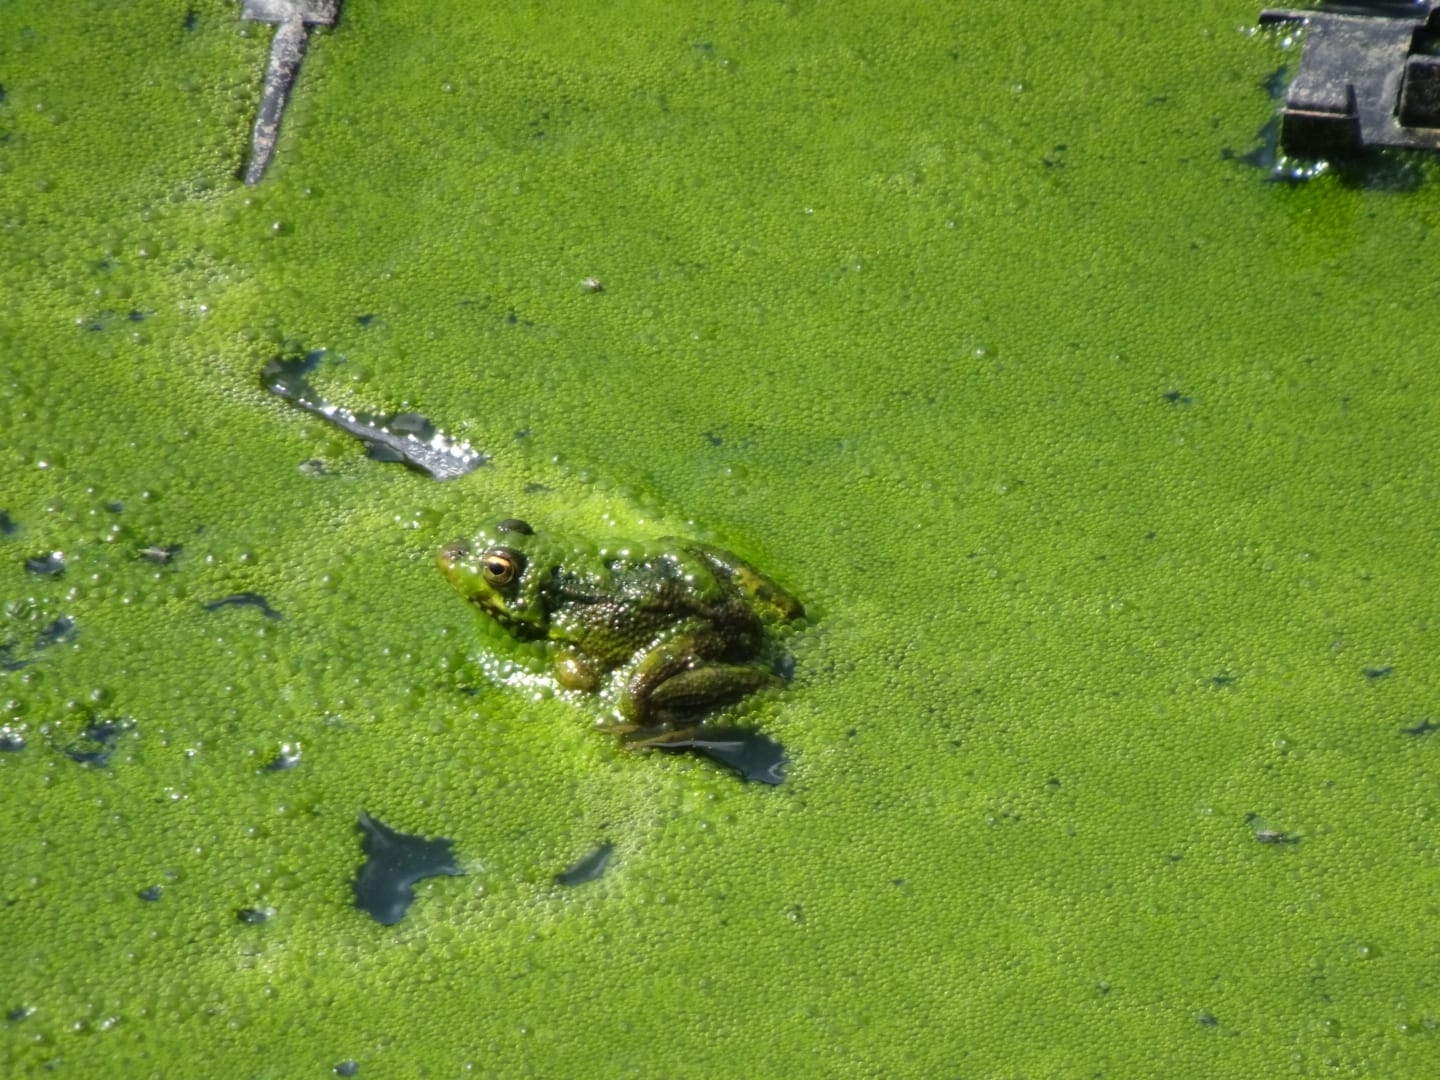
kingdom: Animalia
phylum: Chordata
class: Amphibia
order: Anura
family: Ranidae
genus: Pelophylax
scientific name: Pelophylax perezi
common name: Perez's frog
